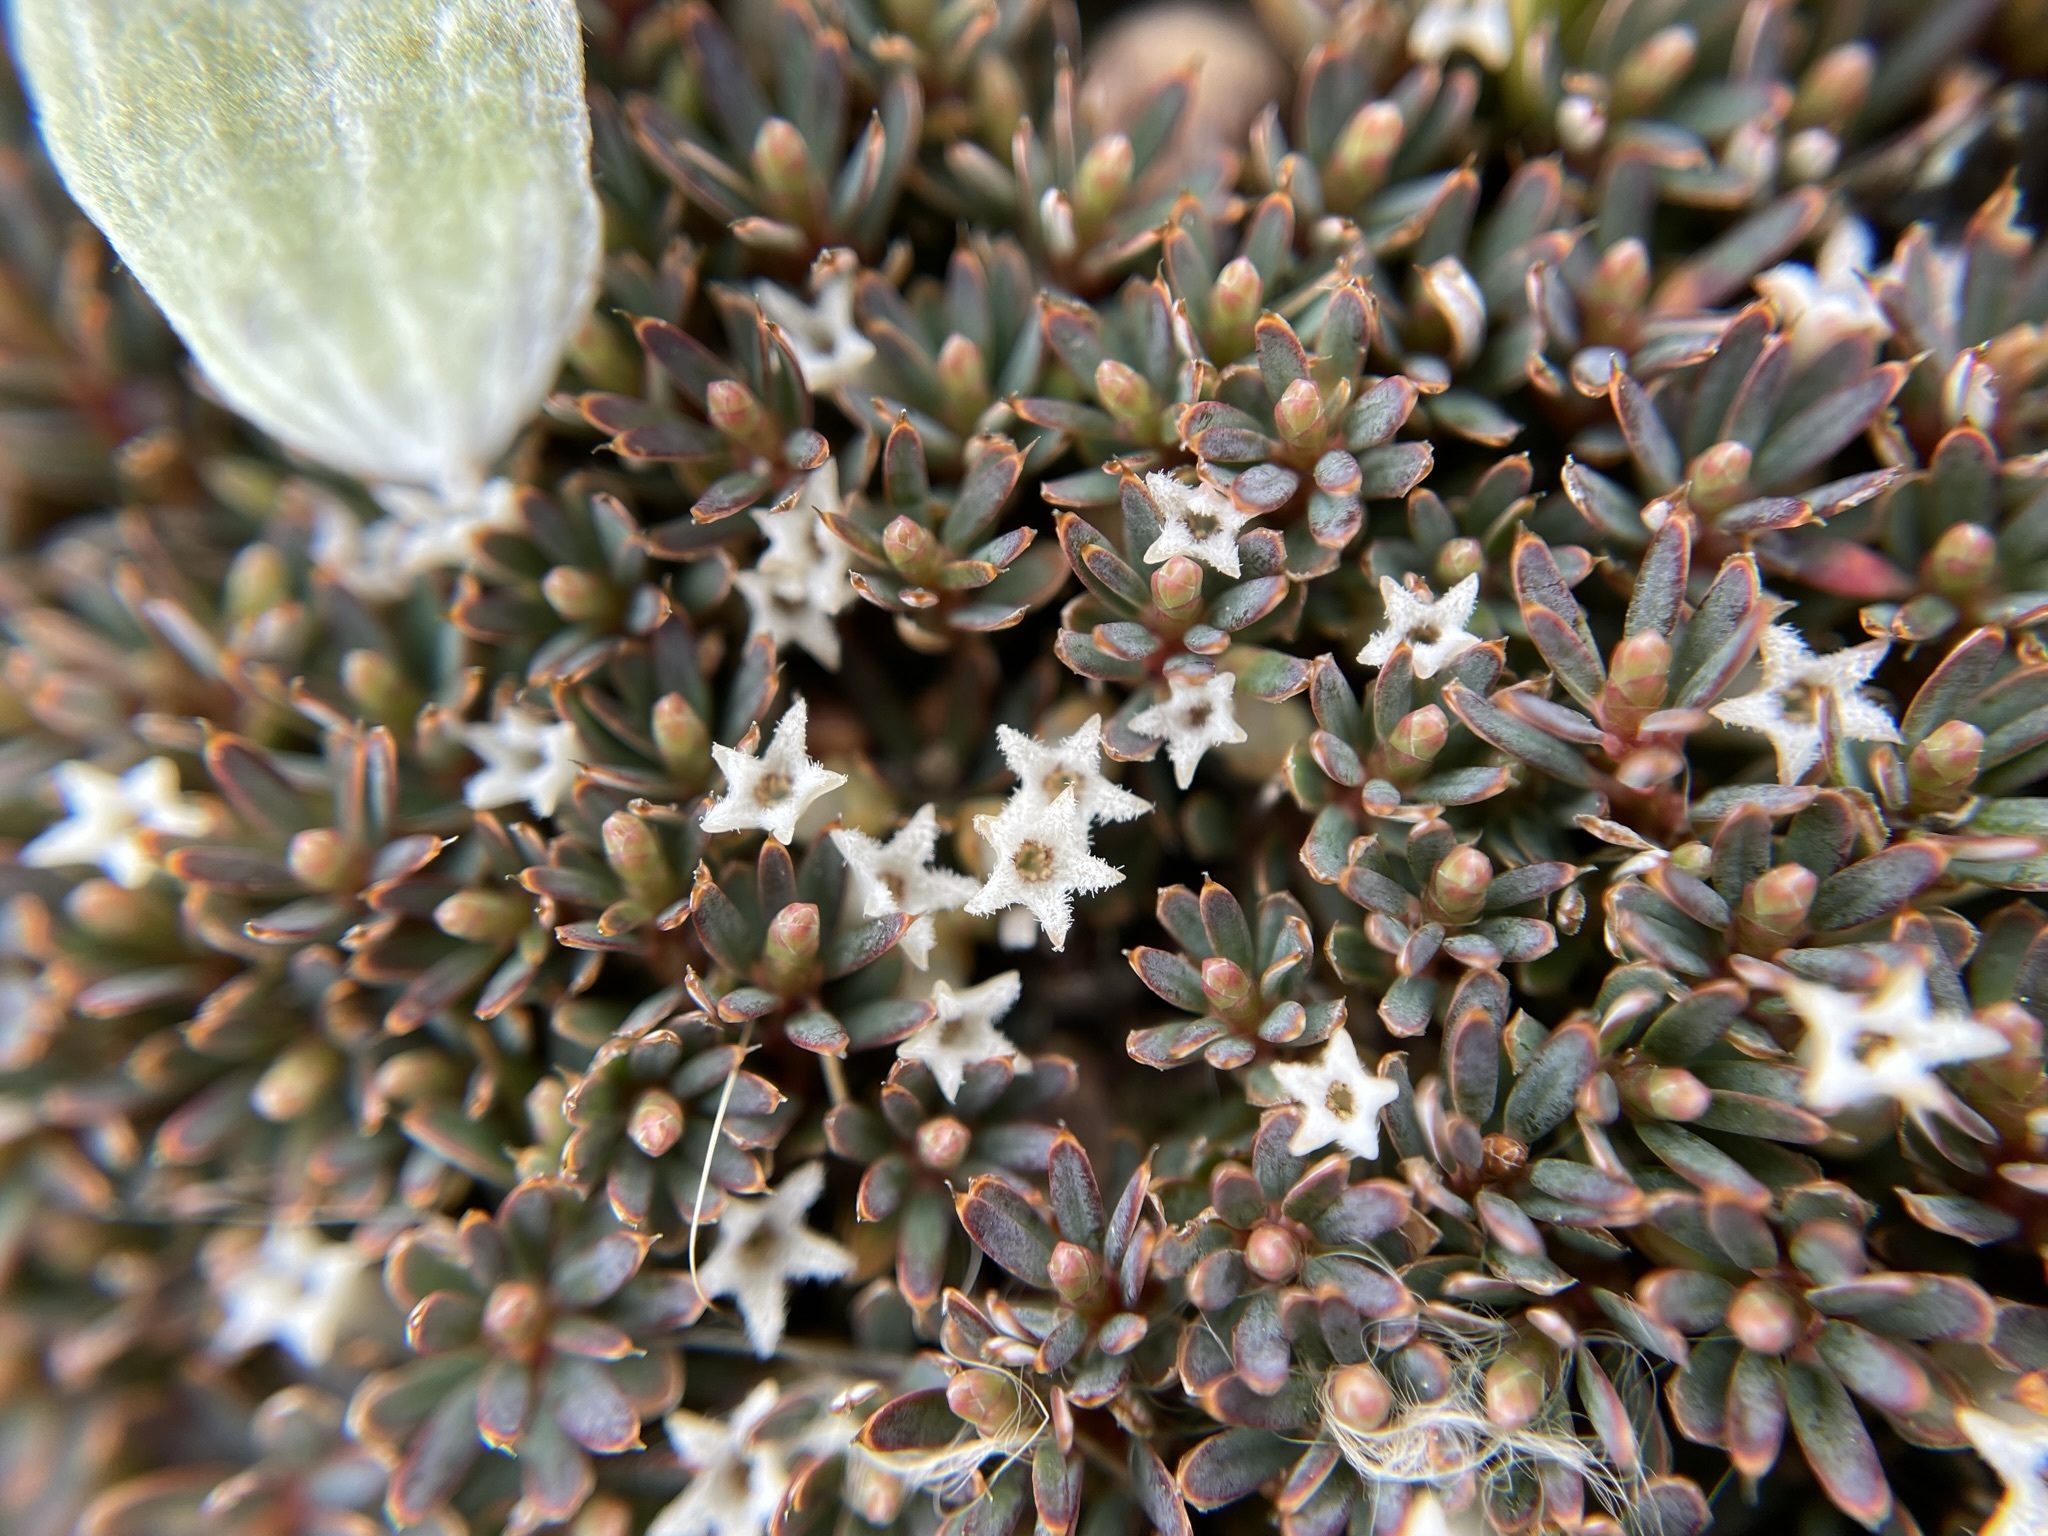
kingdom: Plantae
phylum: Tracheophyta
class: Magnoliopsida
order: Ericales
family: Ericaceae
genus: Montitega
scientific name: Montitega dealbata
